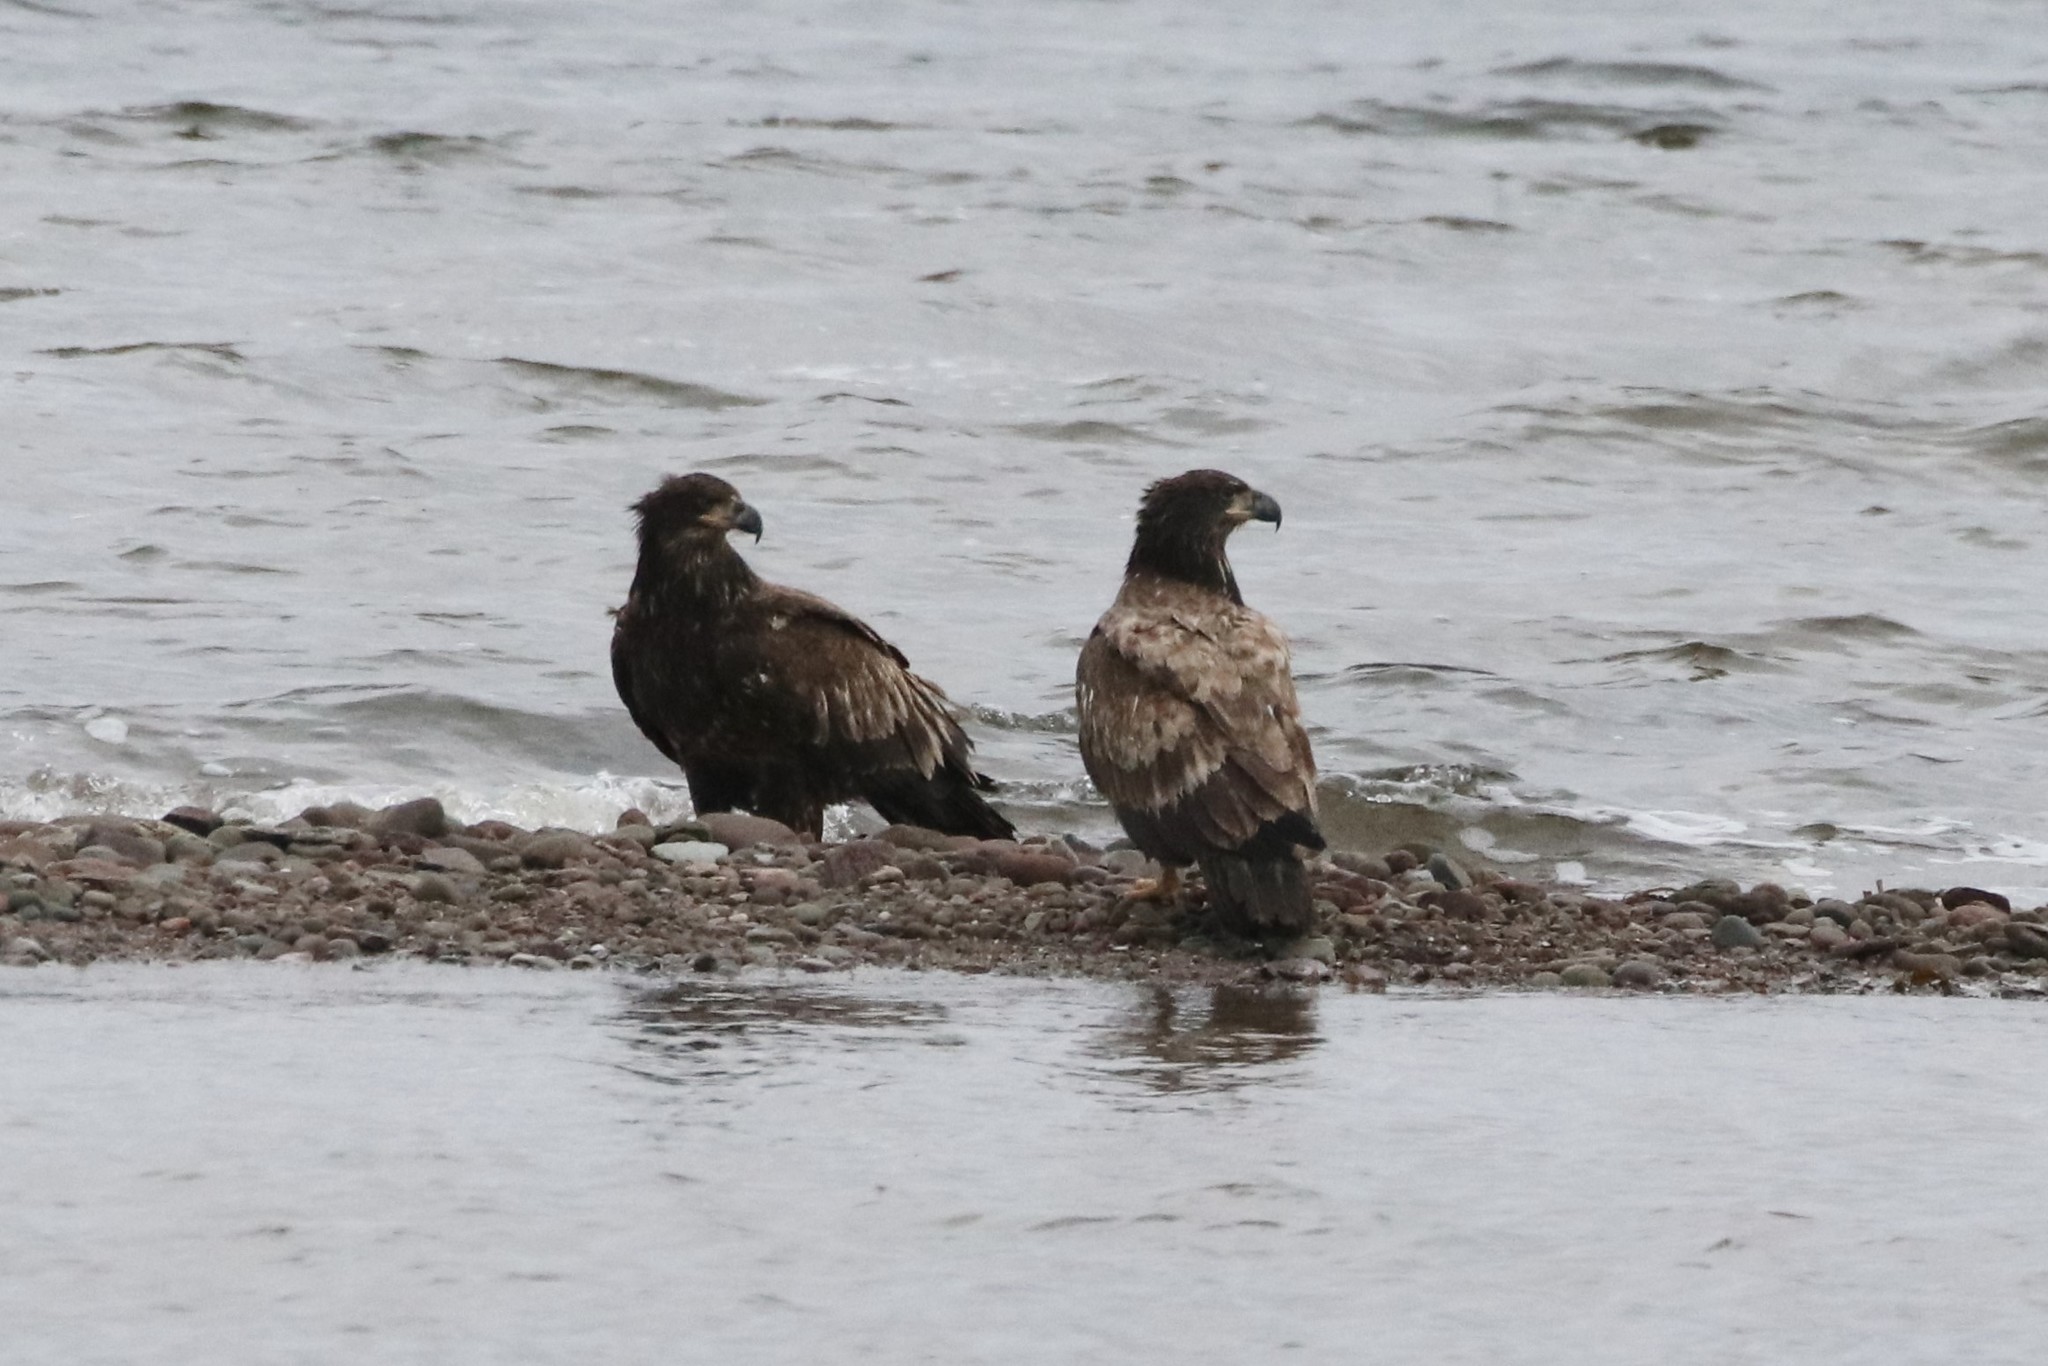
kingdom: Animalia
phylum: Chordata
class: Aves
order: Accipitriformes
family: Accipitridae
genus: Haliaeetus
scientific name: Haliaeetus leucocephalus
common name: Bald eagle
